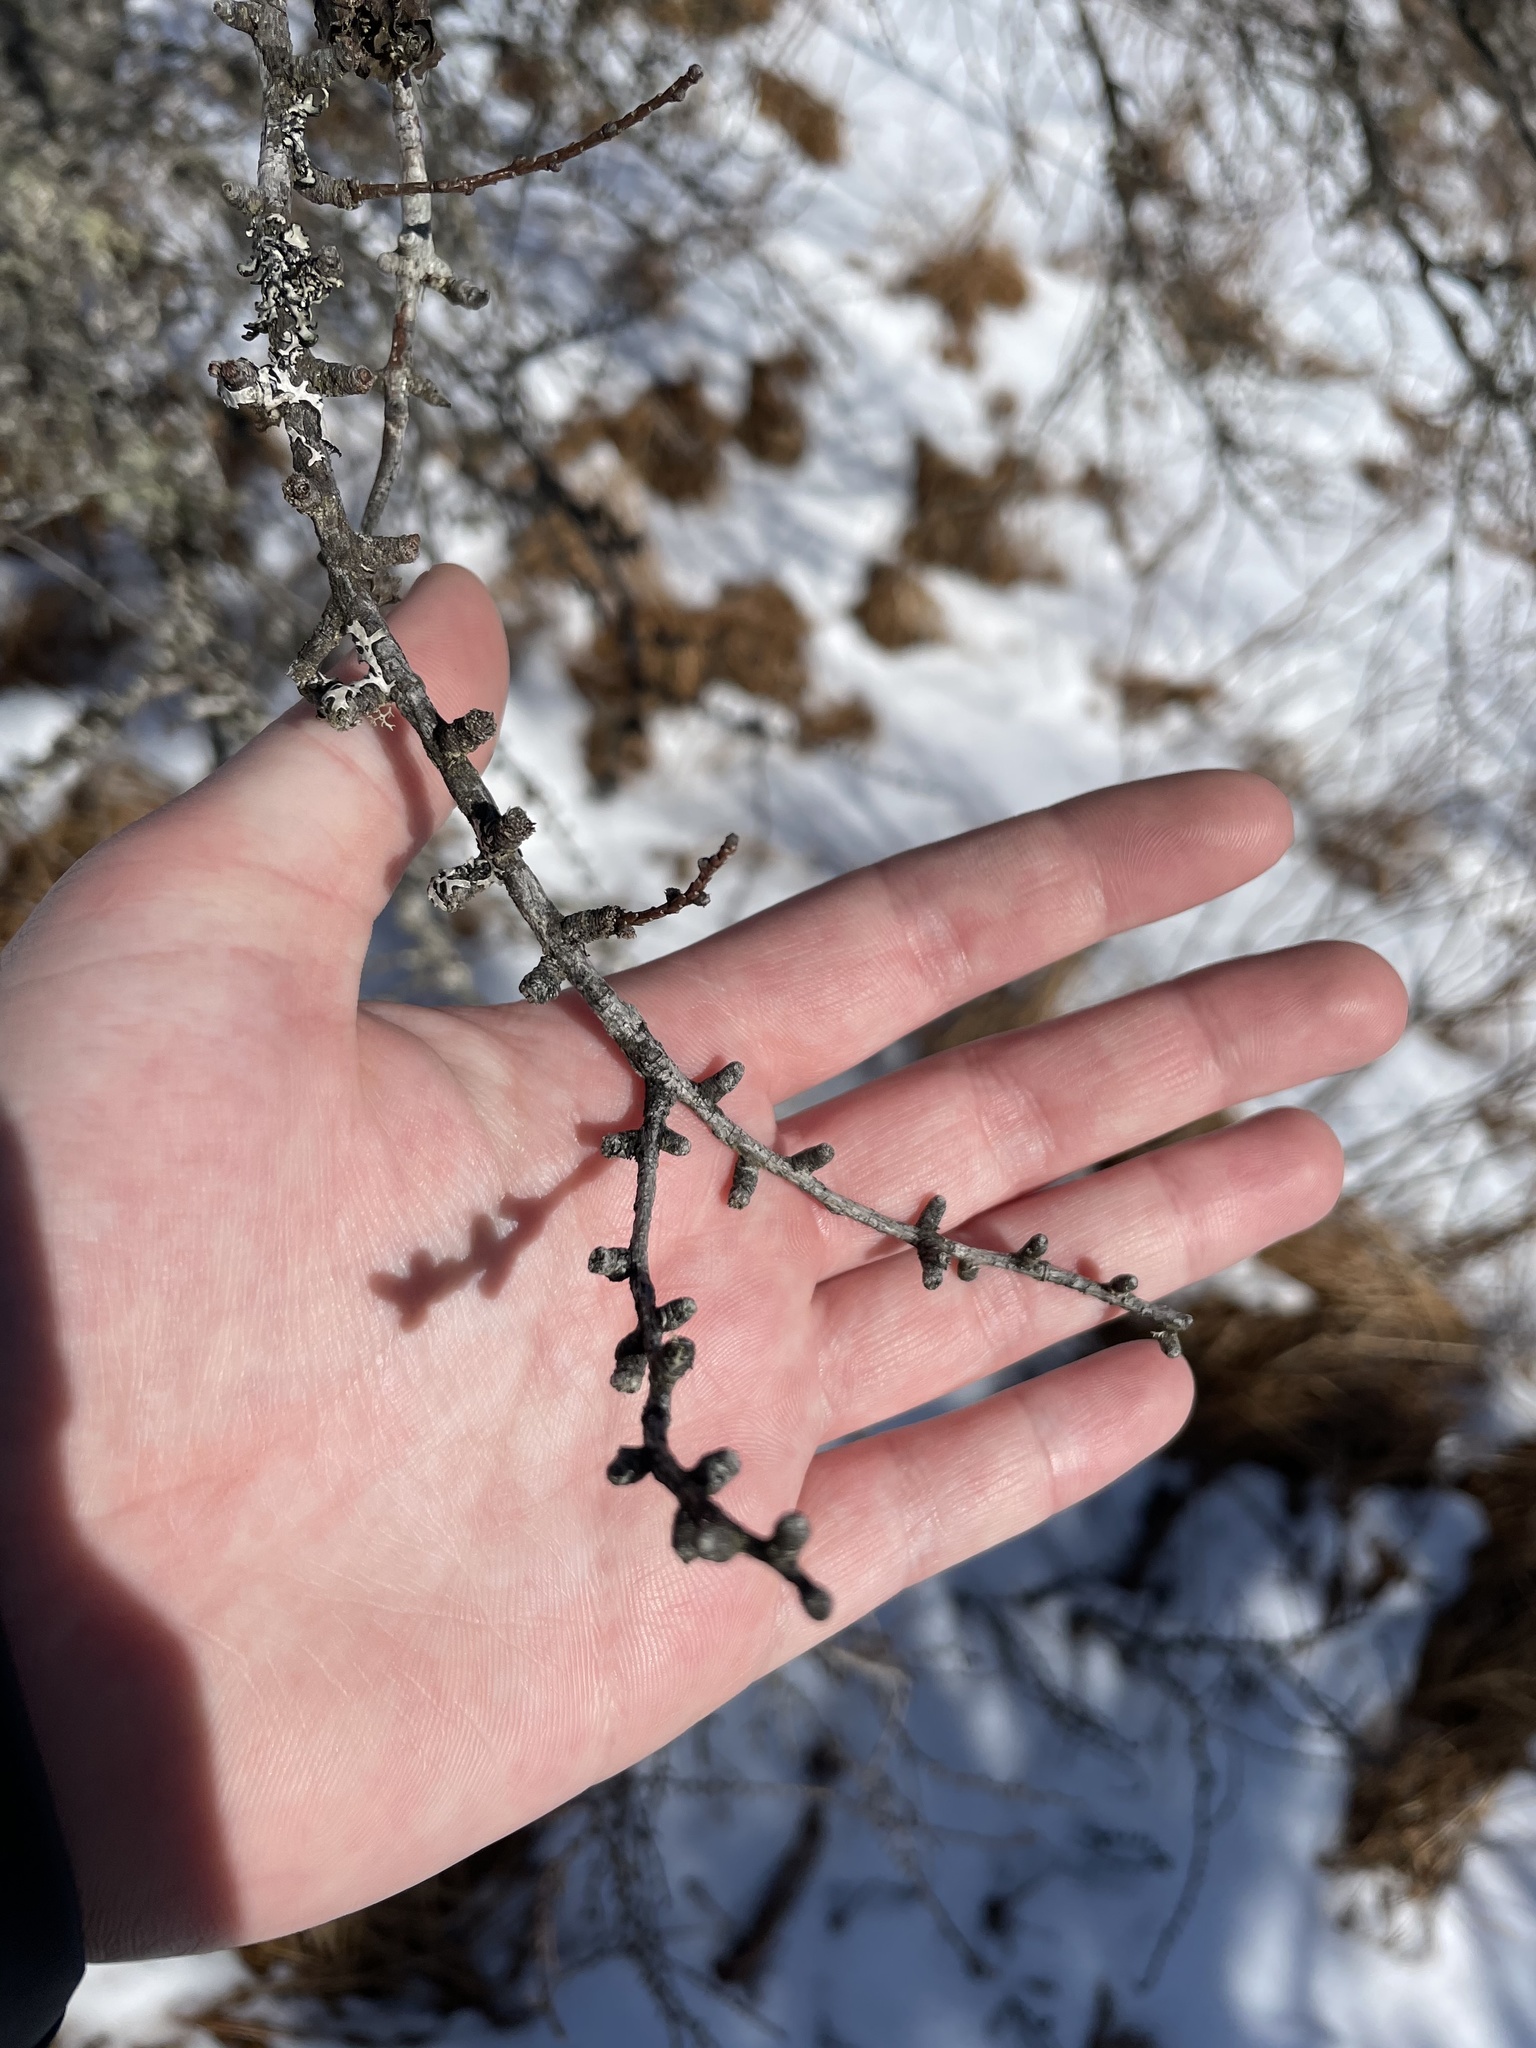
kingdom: Plantae
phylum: Tracheophyta
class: Pinopsida
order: Pinales
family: Pinaceae
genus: Larix
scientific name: Larix laricina
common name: American larch
